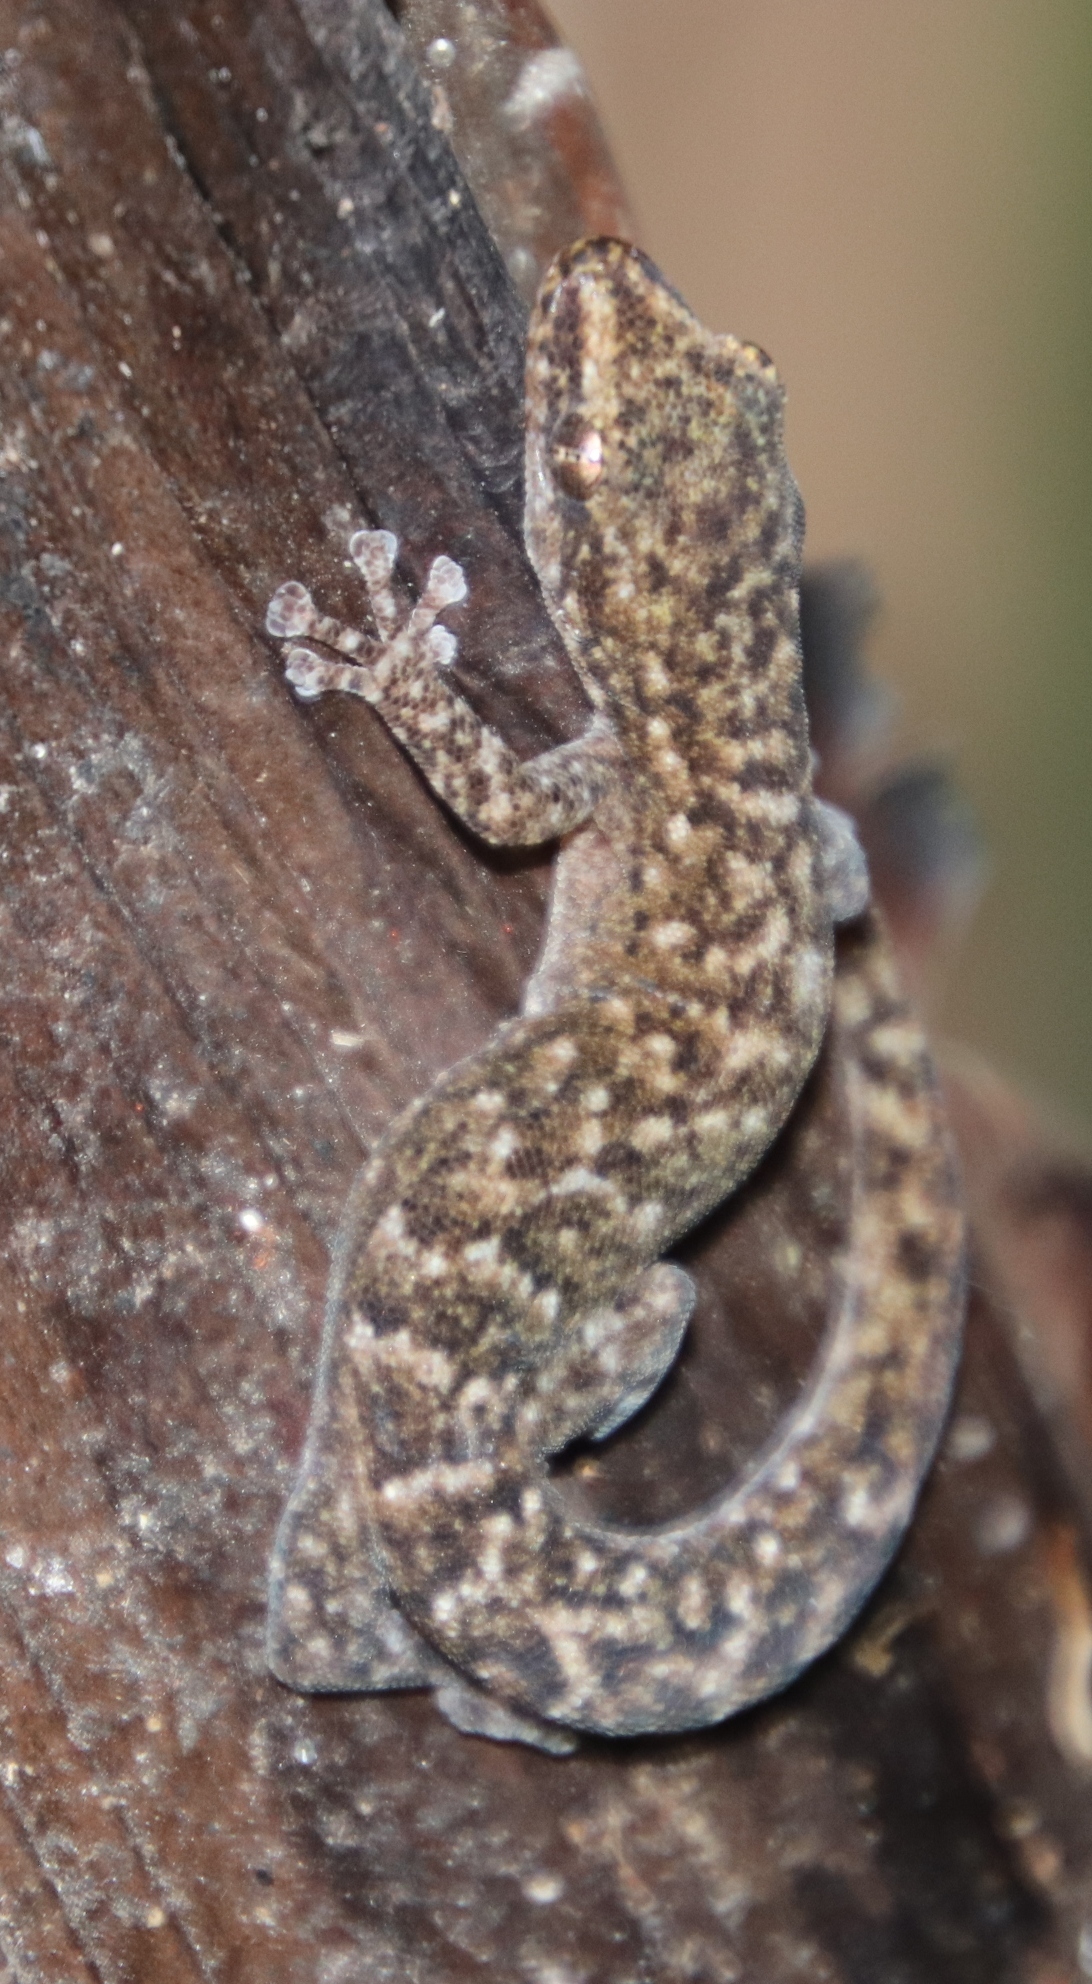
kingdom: Animalia
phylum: Chordata
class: Squamata
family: Gekkonidae
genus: Afrogecko
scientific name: Afrogecko porphyreus
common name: Marbled leaf-toed gecko
